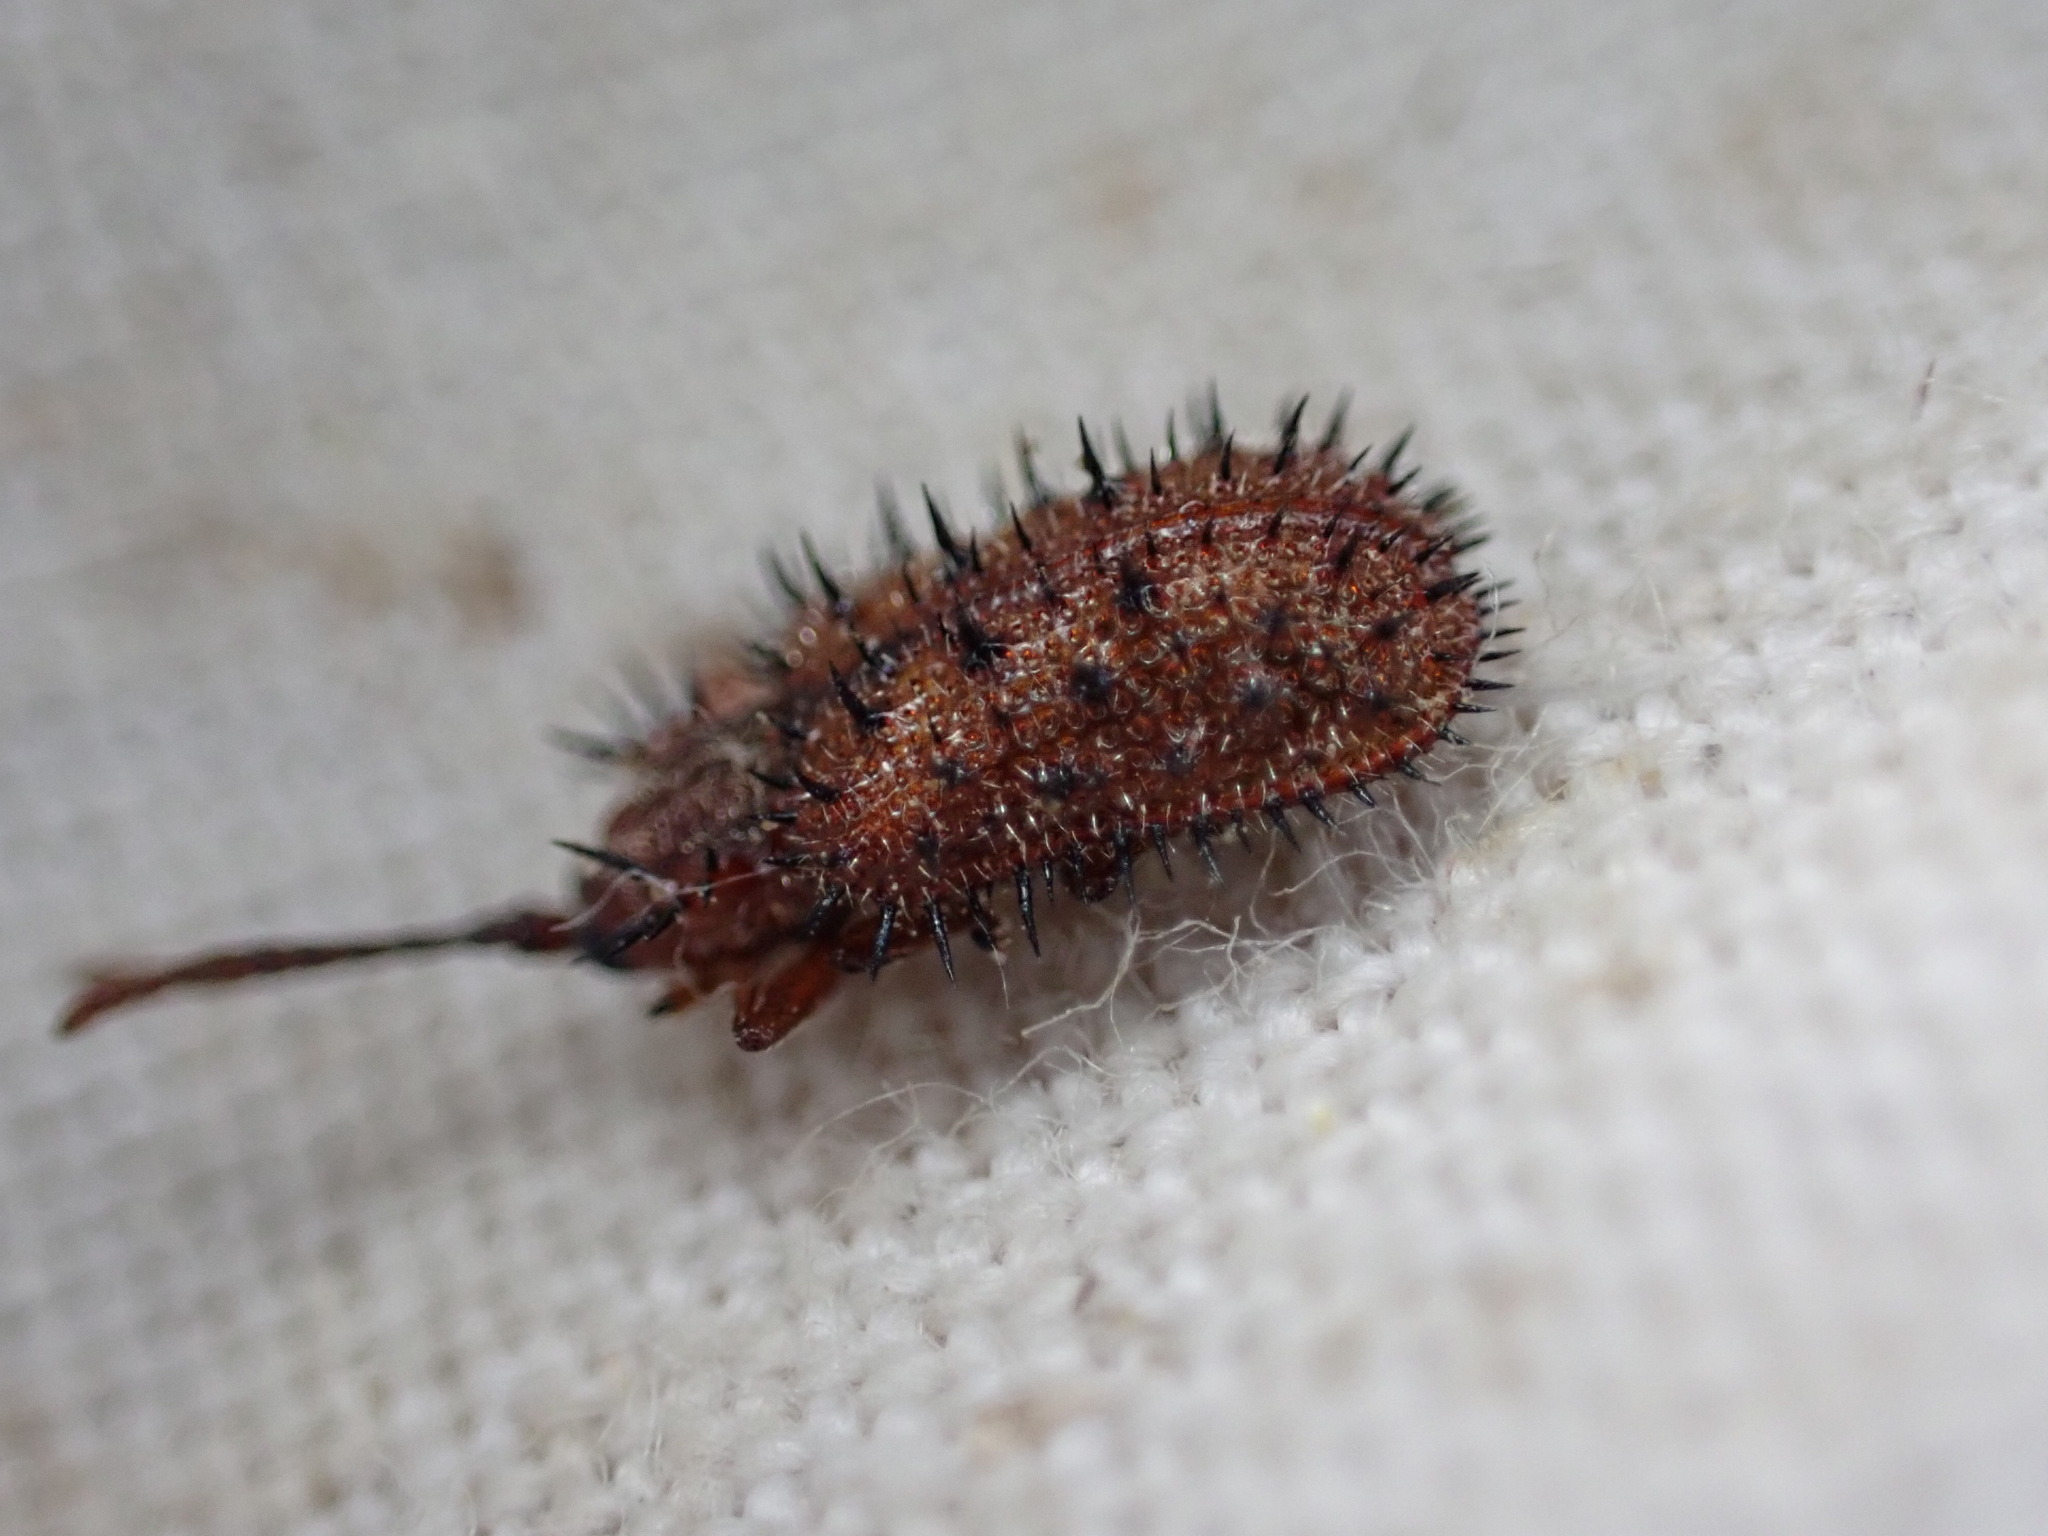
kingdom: Animalia
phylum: Arthropoda
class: Insecta
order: Coleoptera
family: Chrysomelidae
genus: Dicladispa
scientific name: Dicladispa testacea
